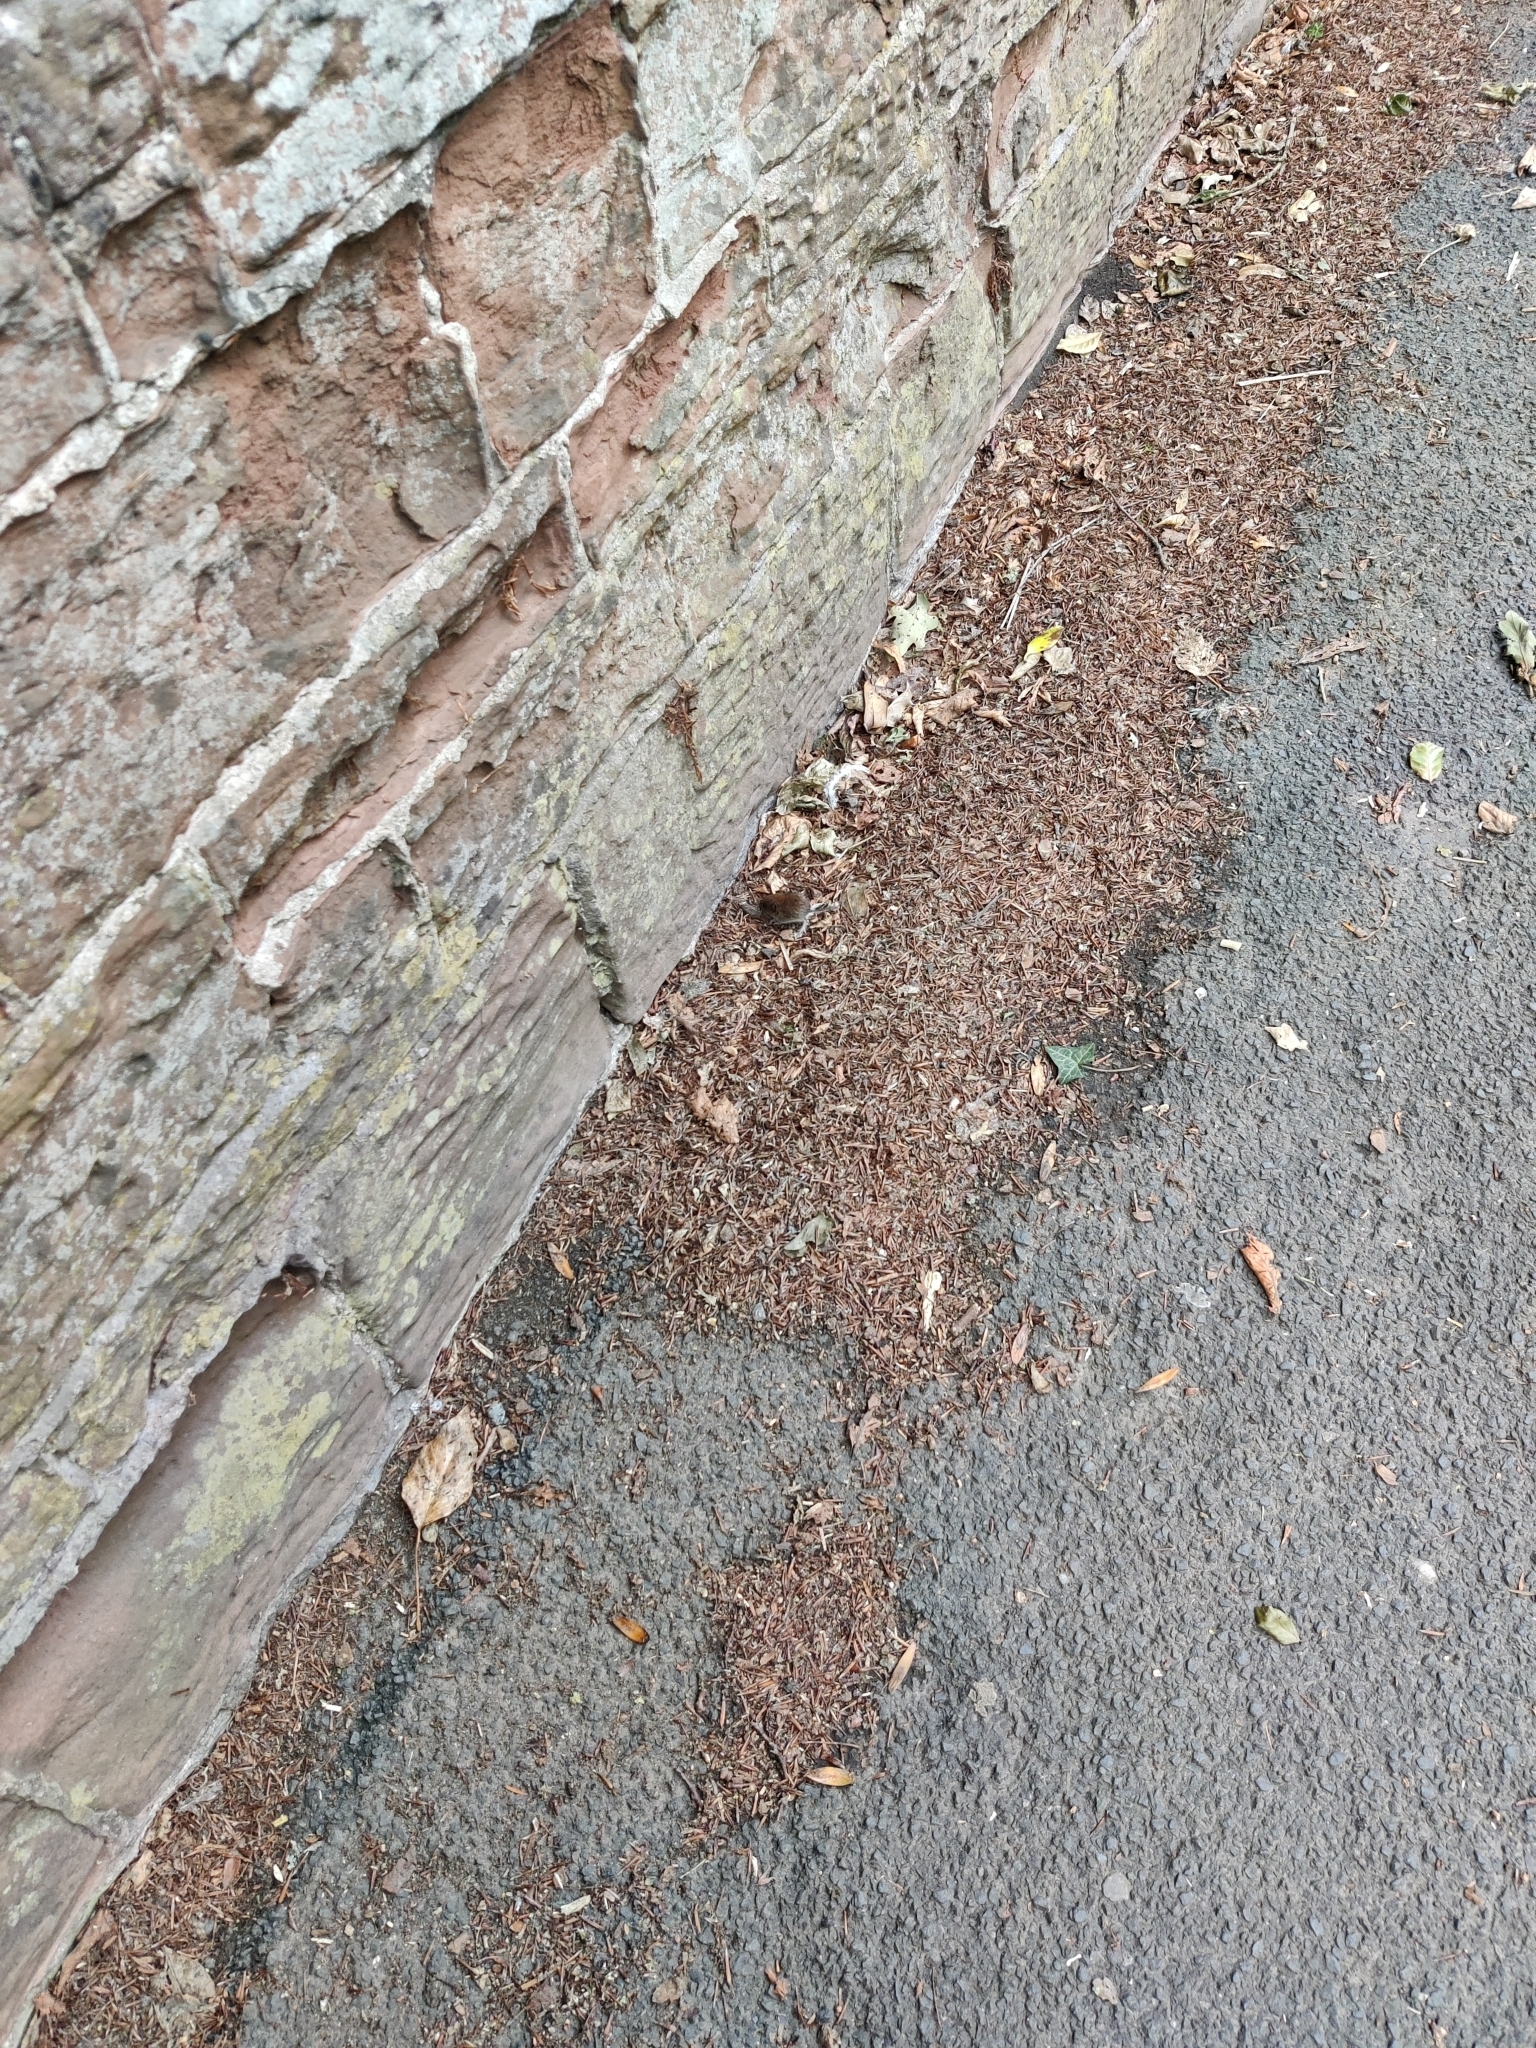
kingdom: Animalia
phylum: Chordata
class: Mammalia
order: Rodentia
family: Cricetidae
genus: Microtus
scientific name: Microtus agrestis
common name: Field vole
